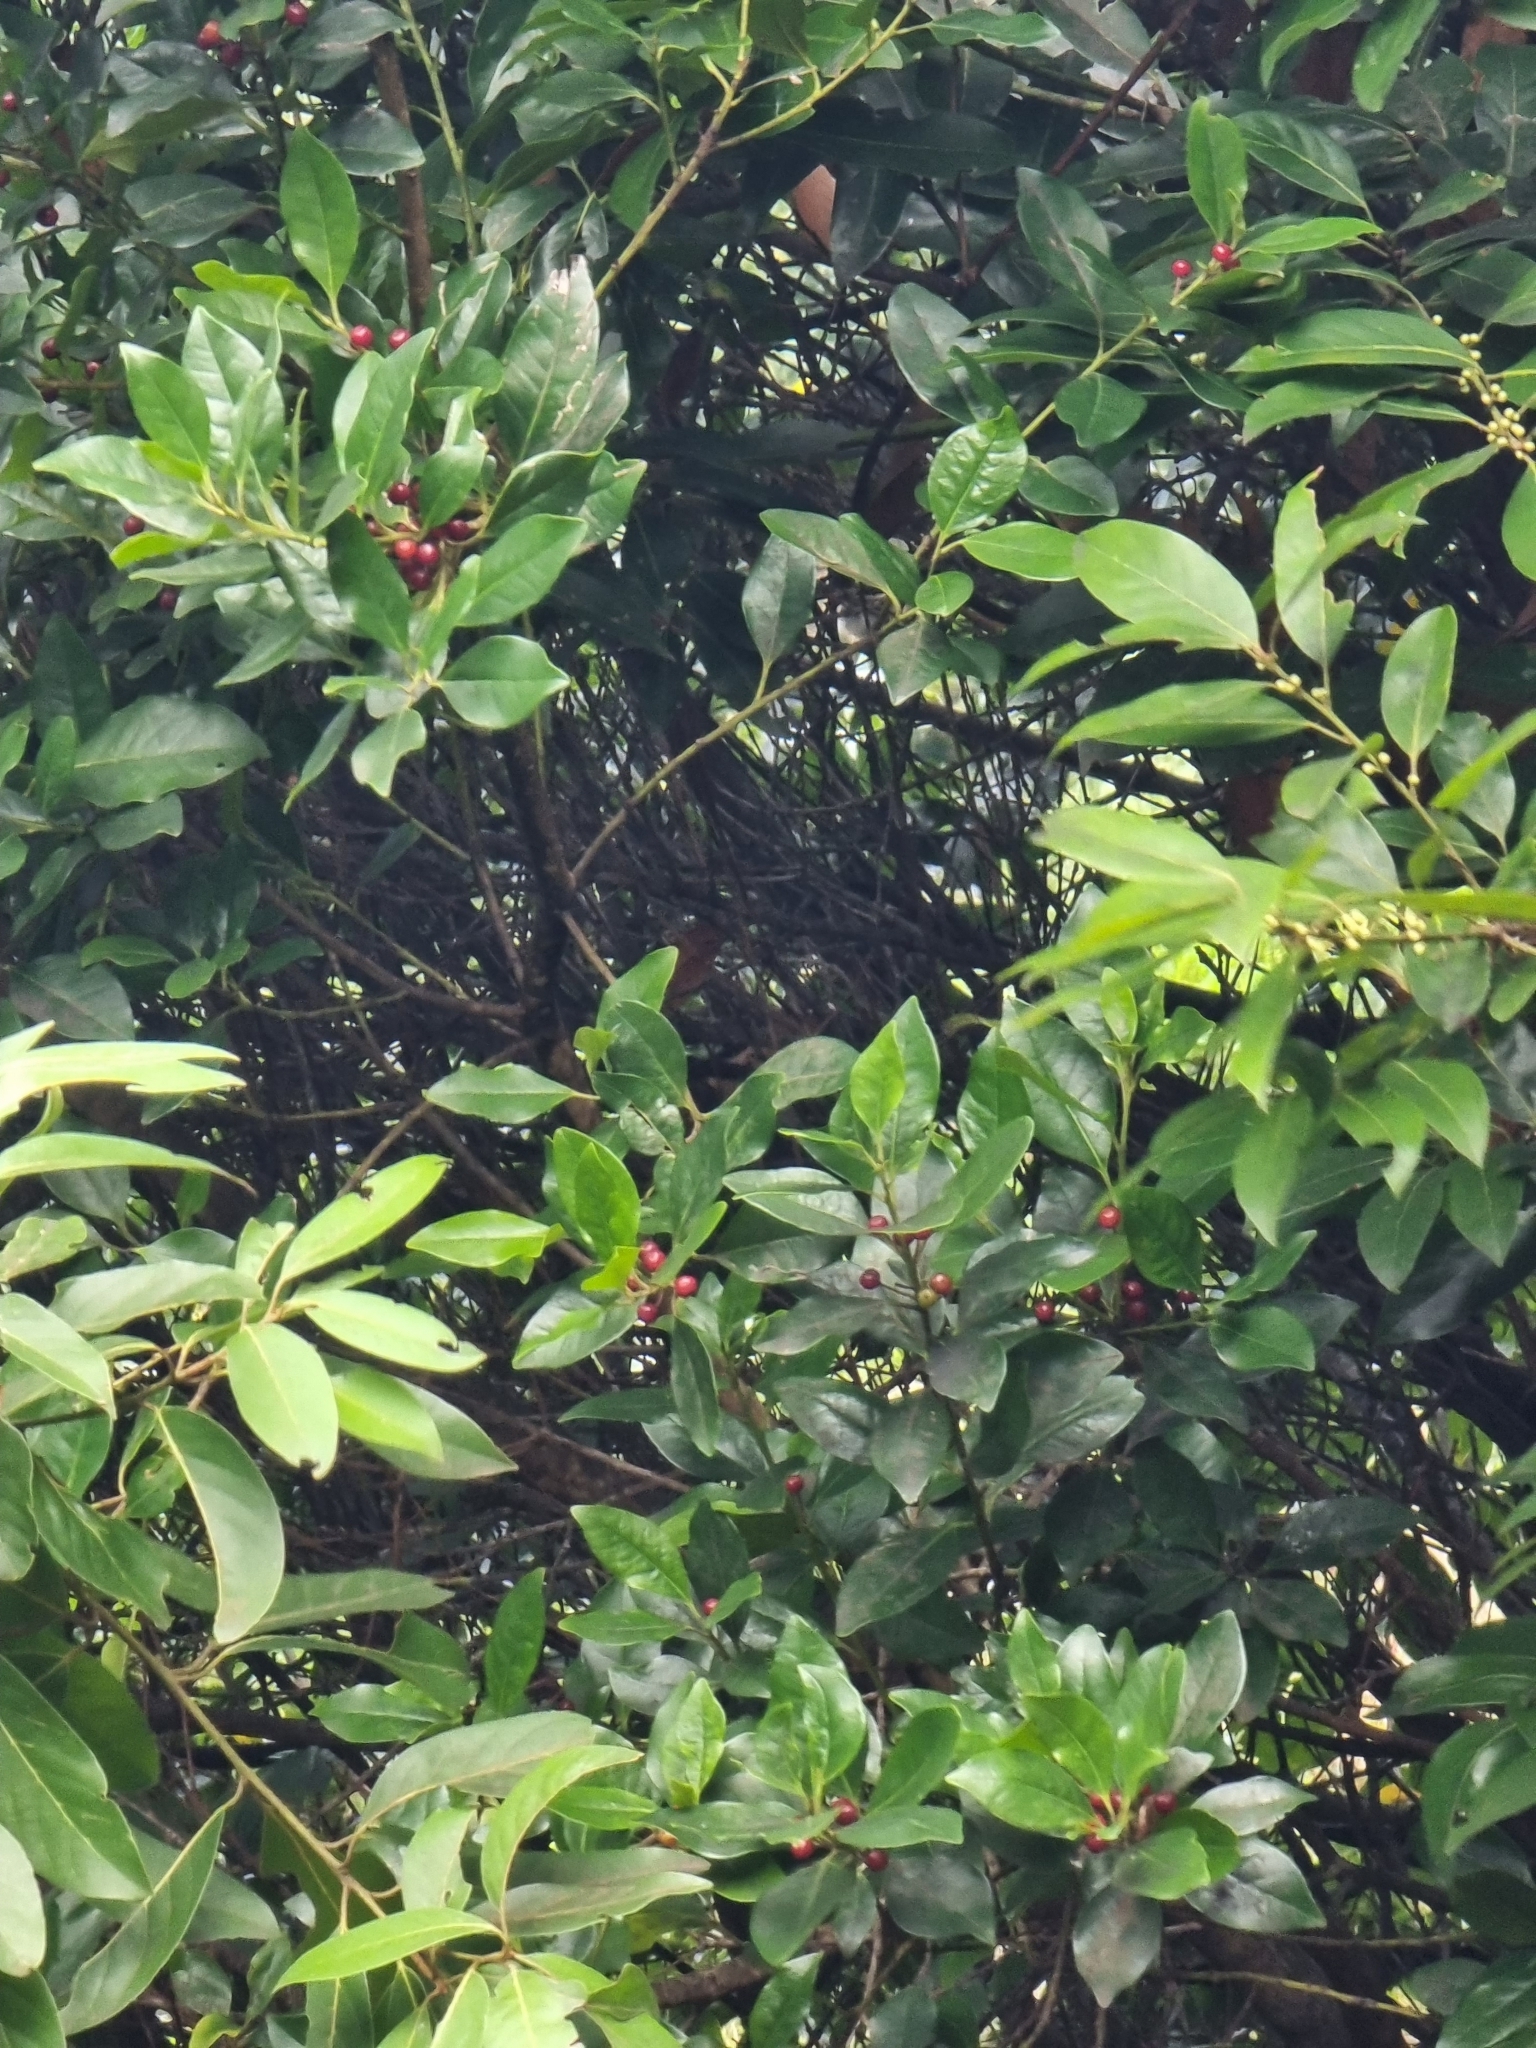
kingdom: Plantae
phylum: Tracheophyta
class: Magnoliopsida
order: Aquifoliales
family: Aquifoliaceae
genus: Ilex
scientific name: Ilex canariensis
